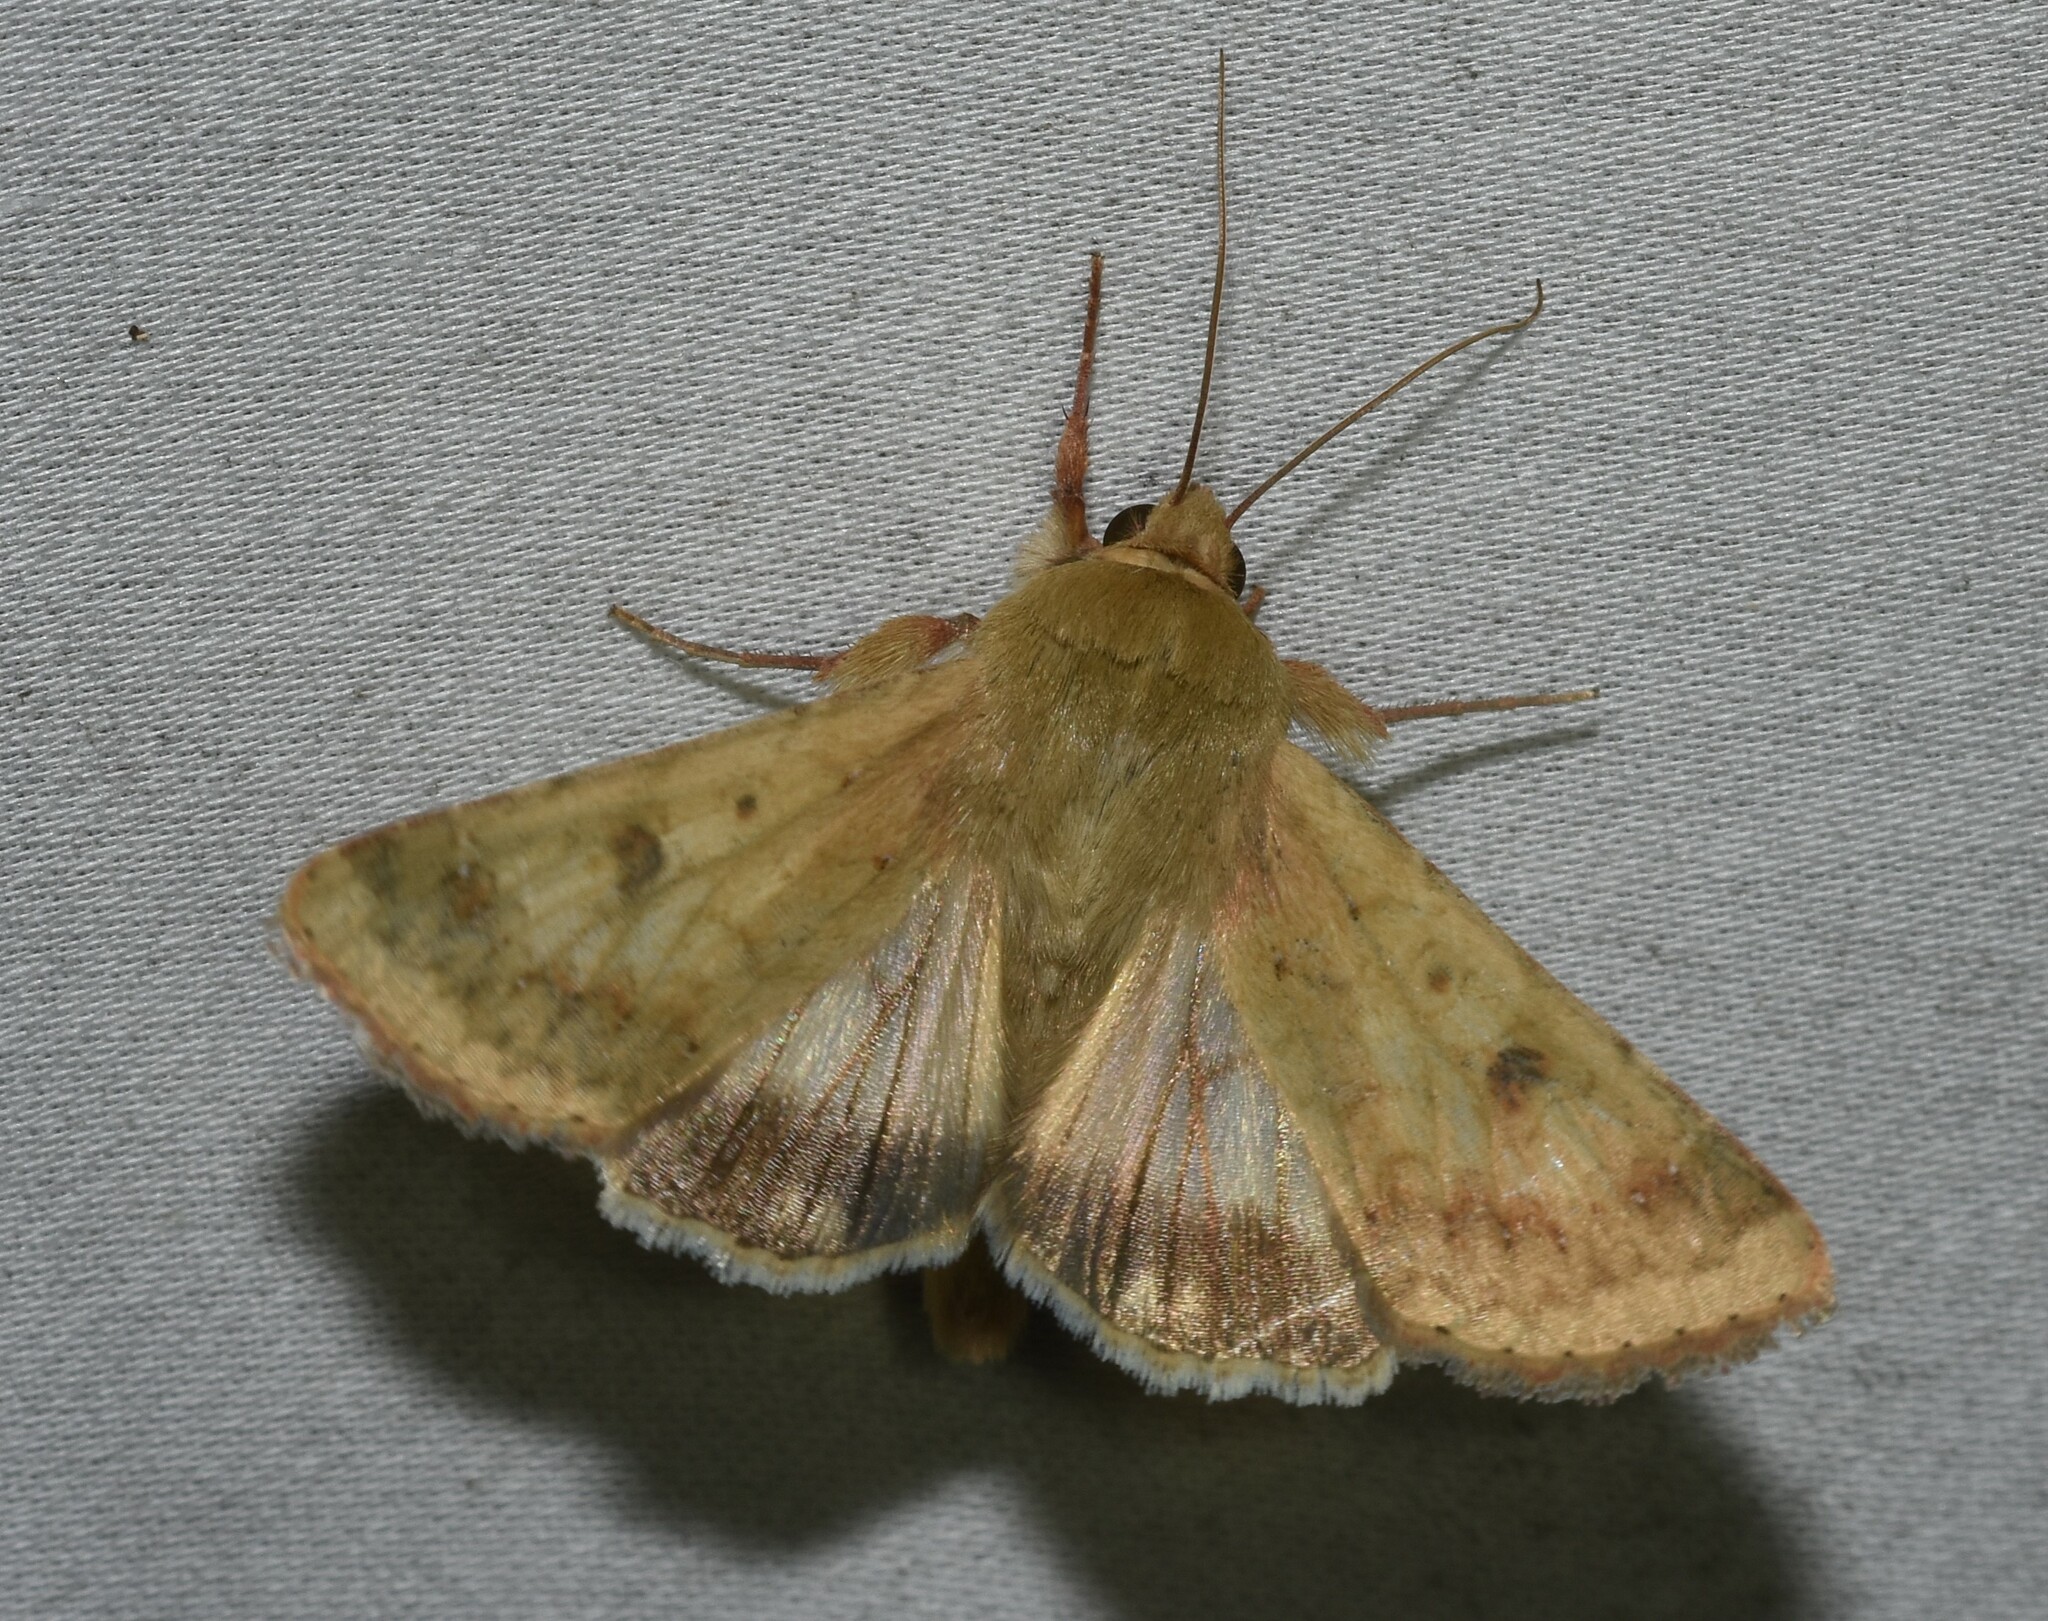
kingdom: Animalia
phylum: Arthropoda
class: Insecta
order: Lepidoptera
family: Noctuidae
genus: Helicoverpa
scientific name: Helicoverpa zea
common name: Bollworm
